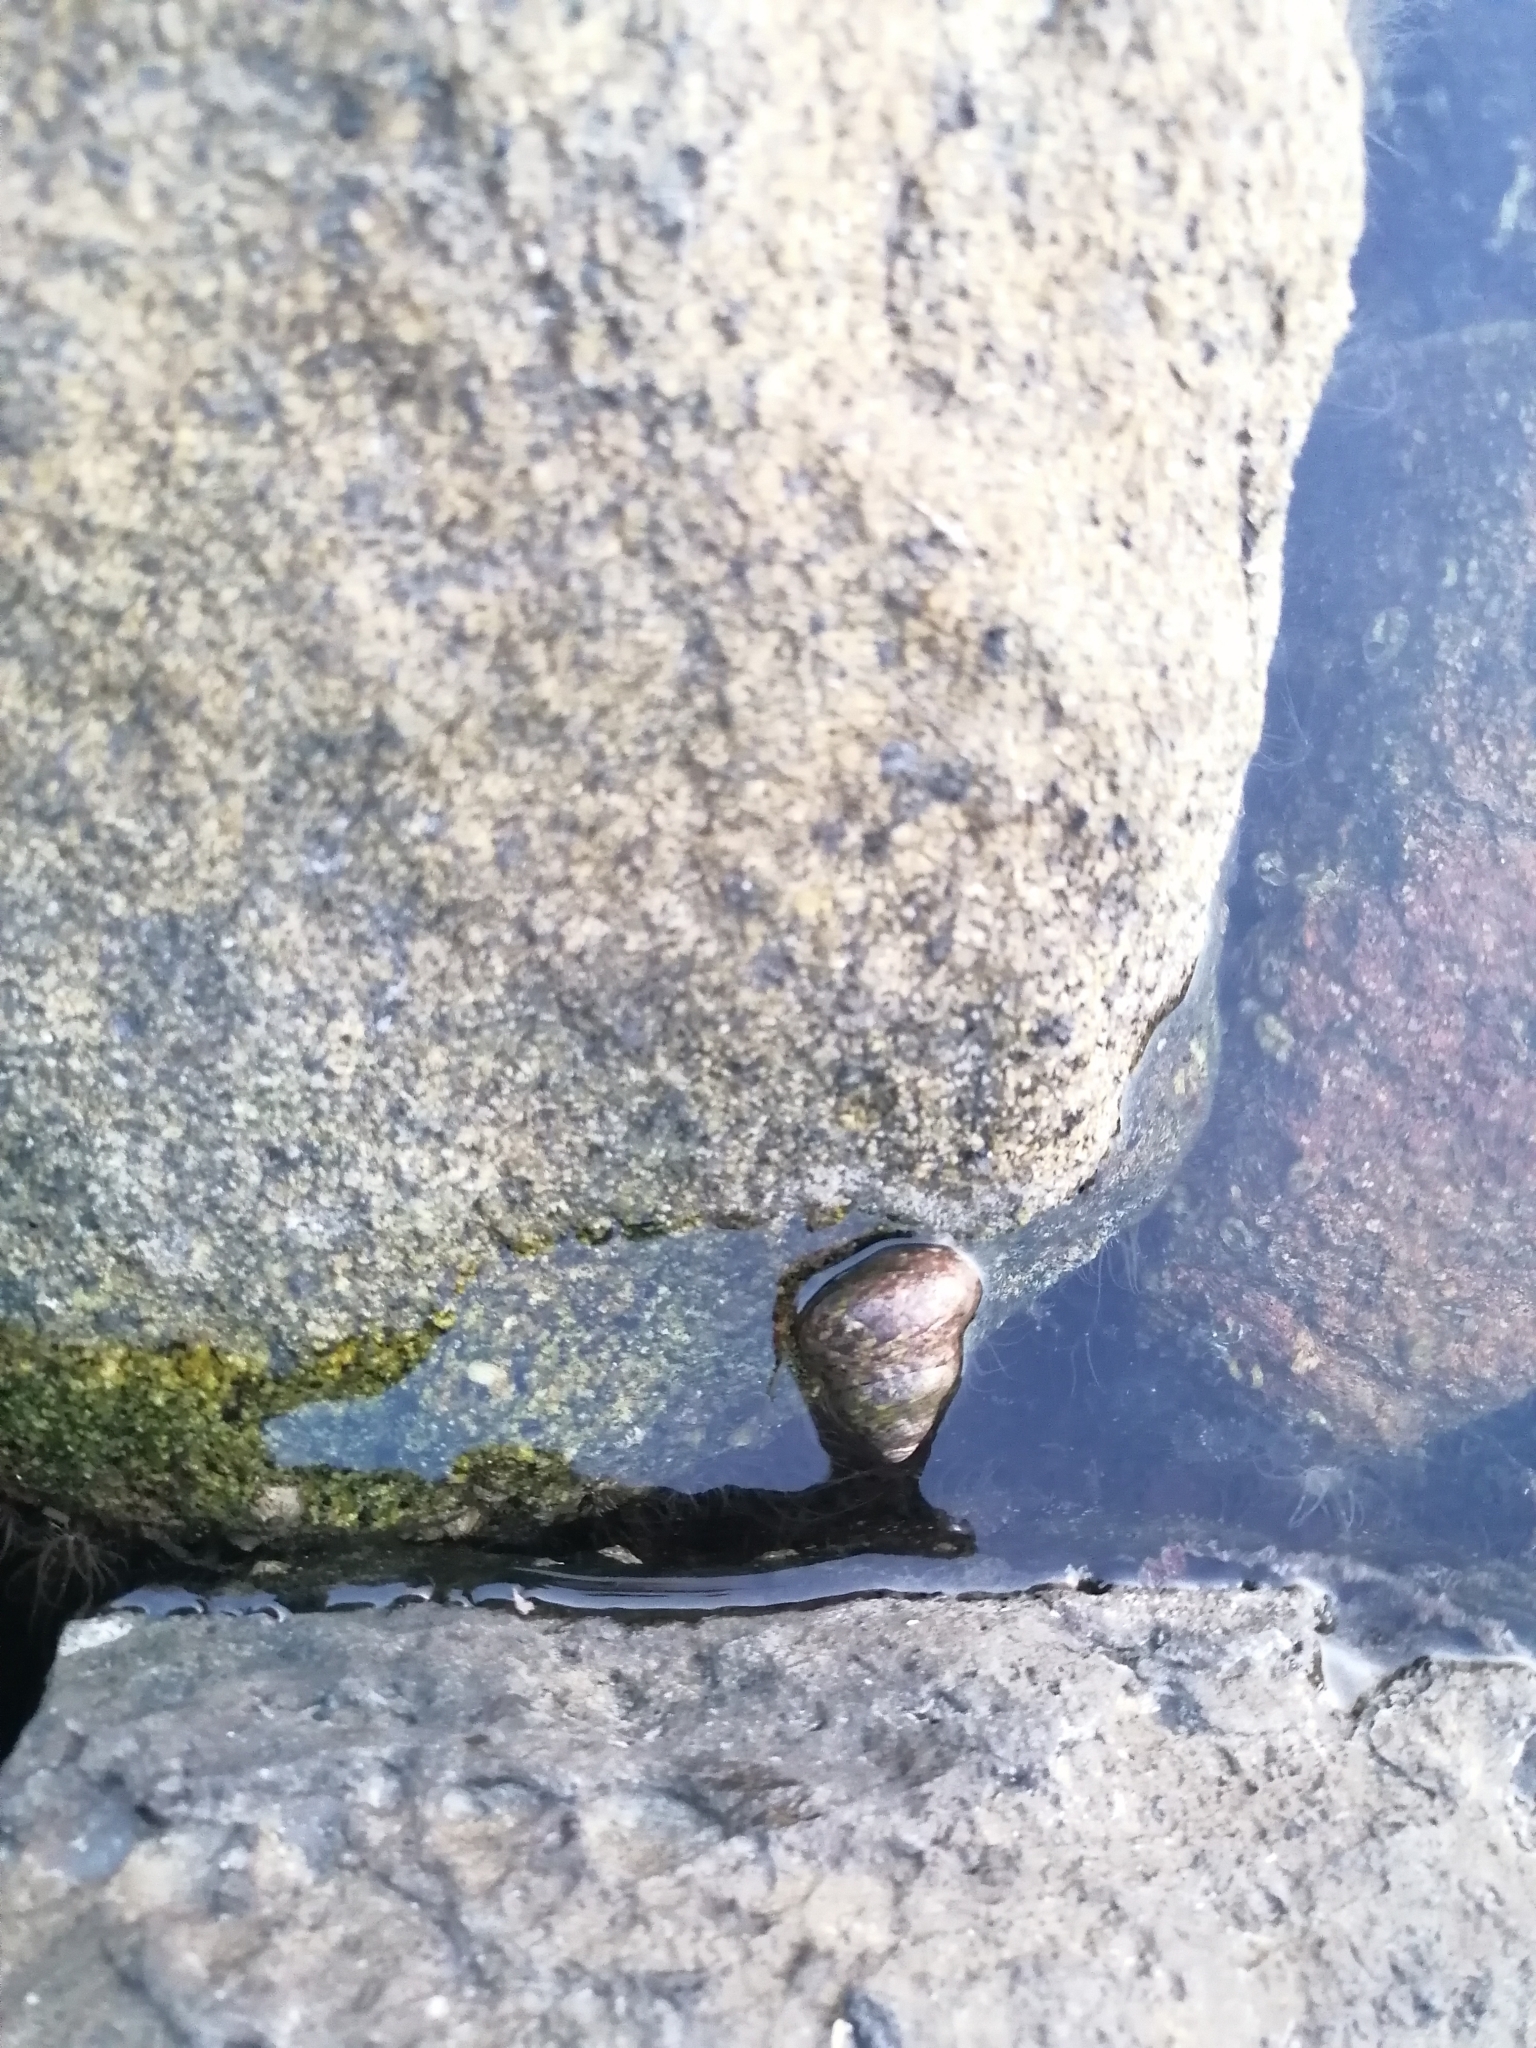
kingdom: Animalia
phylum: Mollusca
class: Gastropoda
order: Trochida
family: Trochidae
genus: Phorcus
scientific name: Phorcus articulatus
